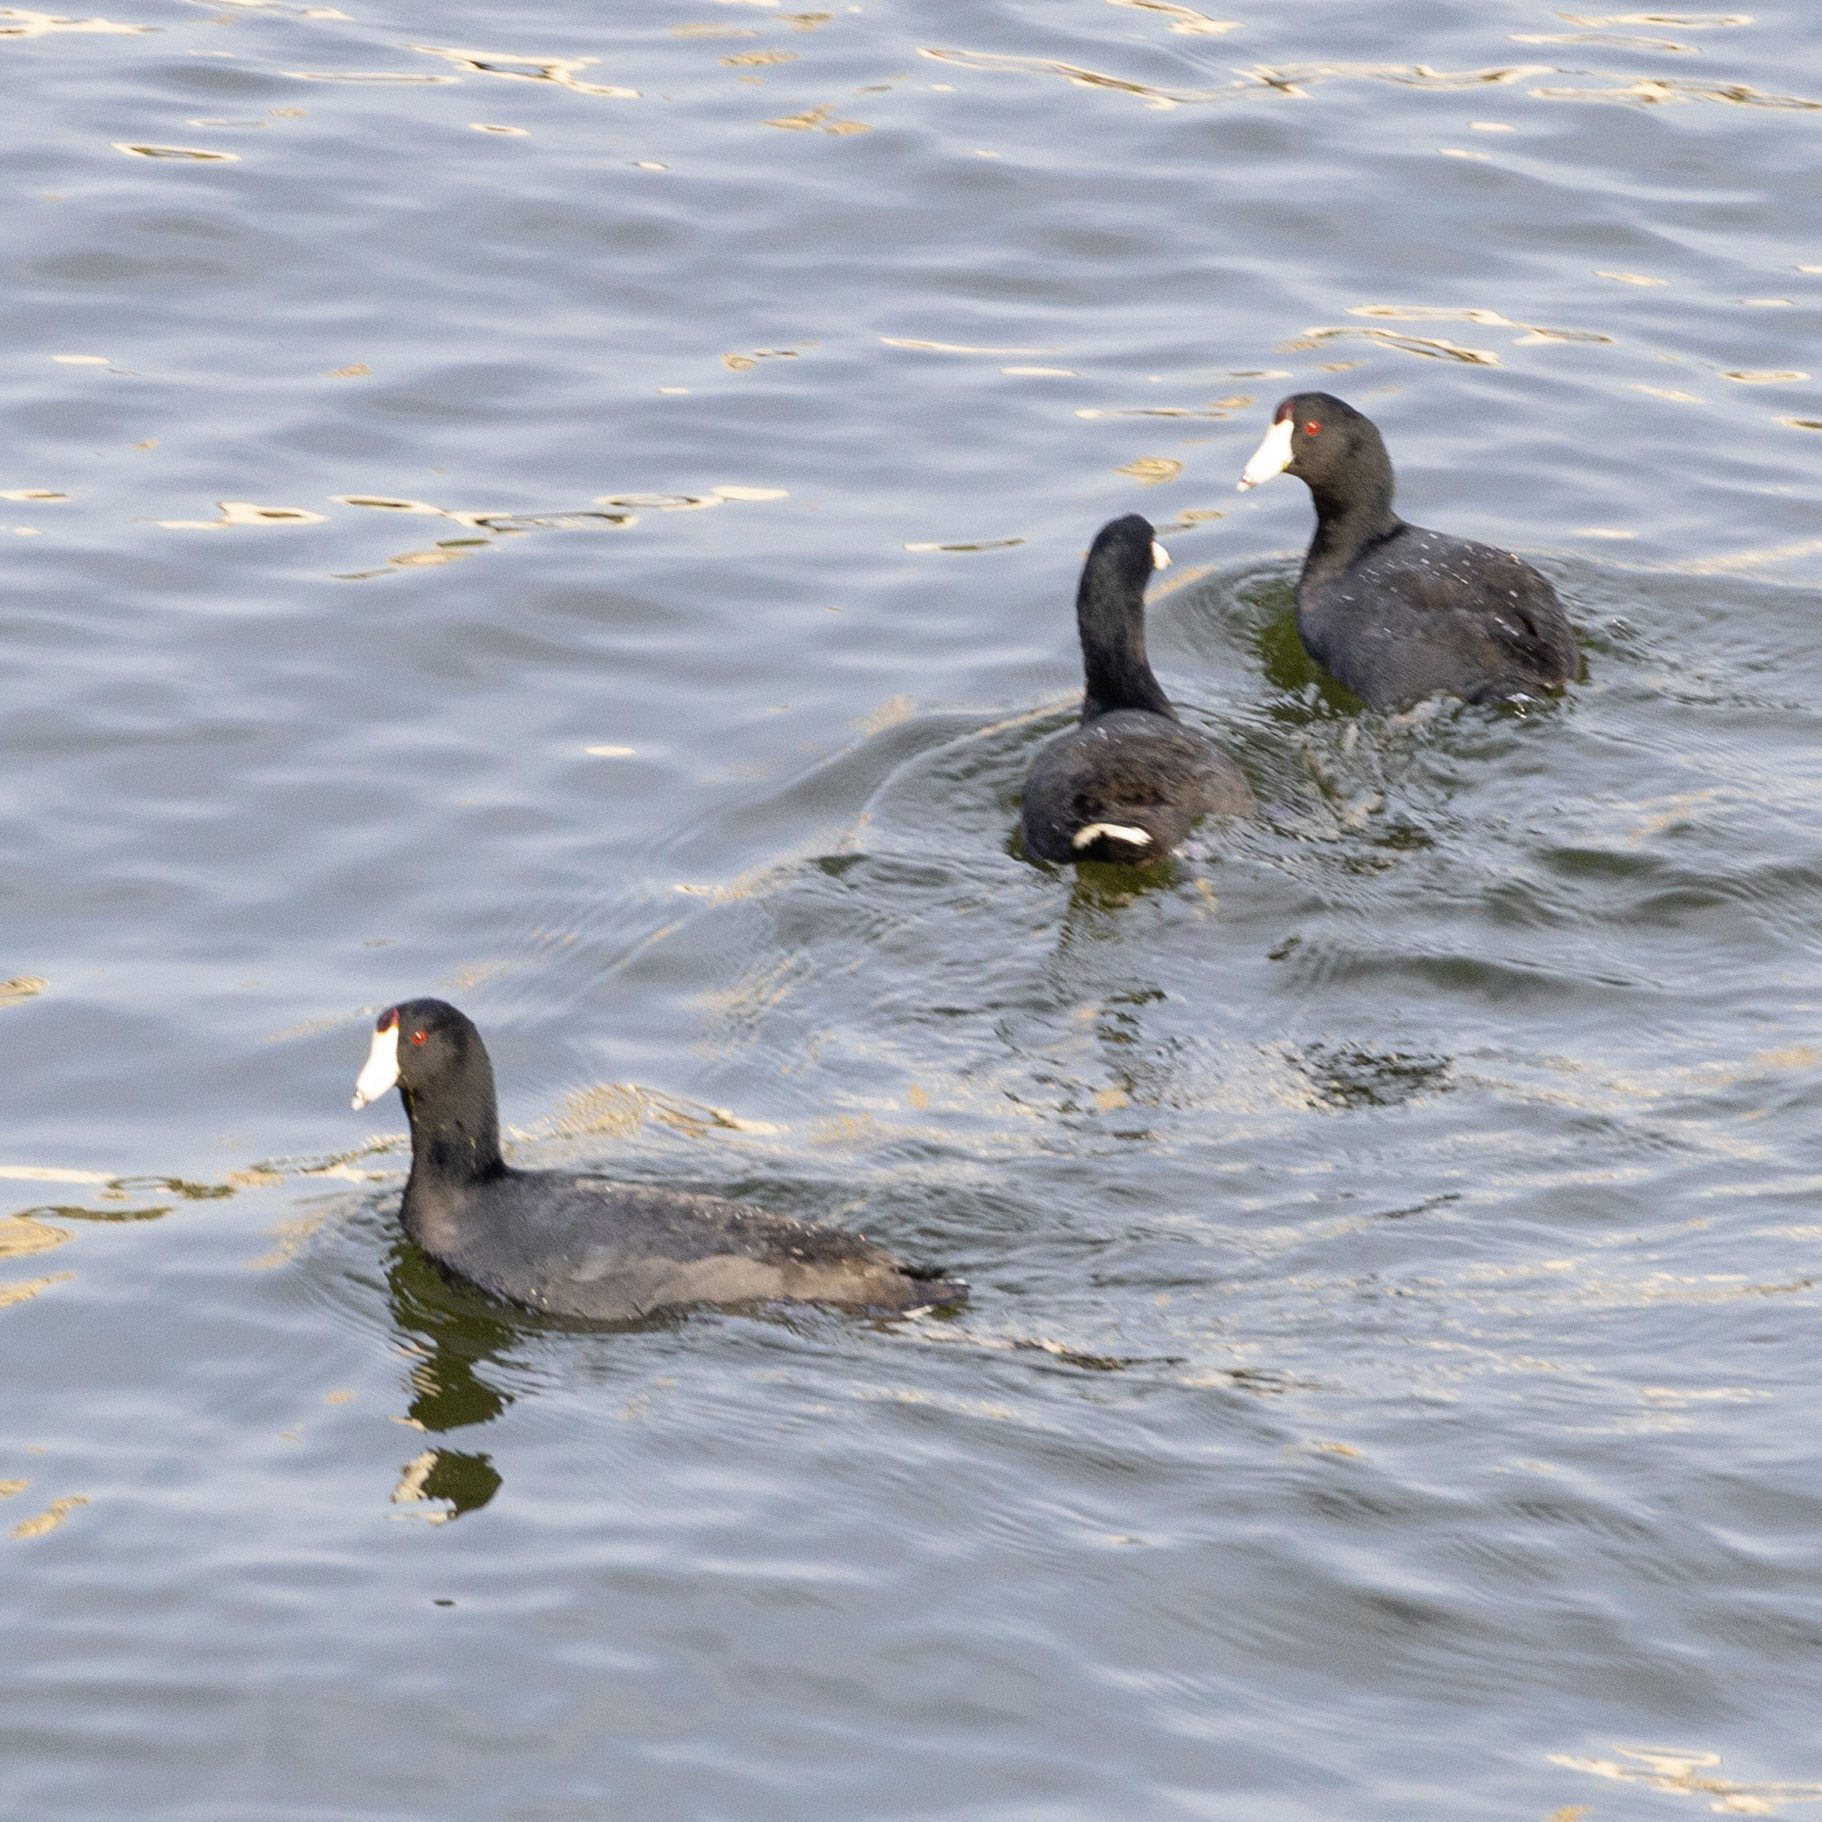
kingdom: Animalia
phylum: Chordata
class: Aves
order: Gruiformes
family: Rallidae
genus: Fulica
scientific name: Fulica americana
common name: American coot
